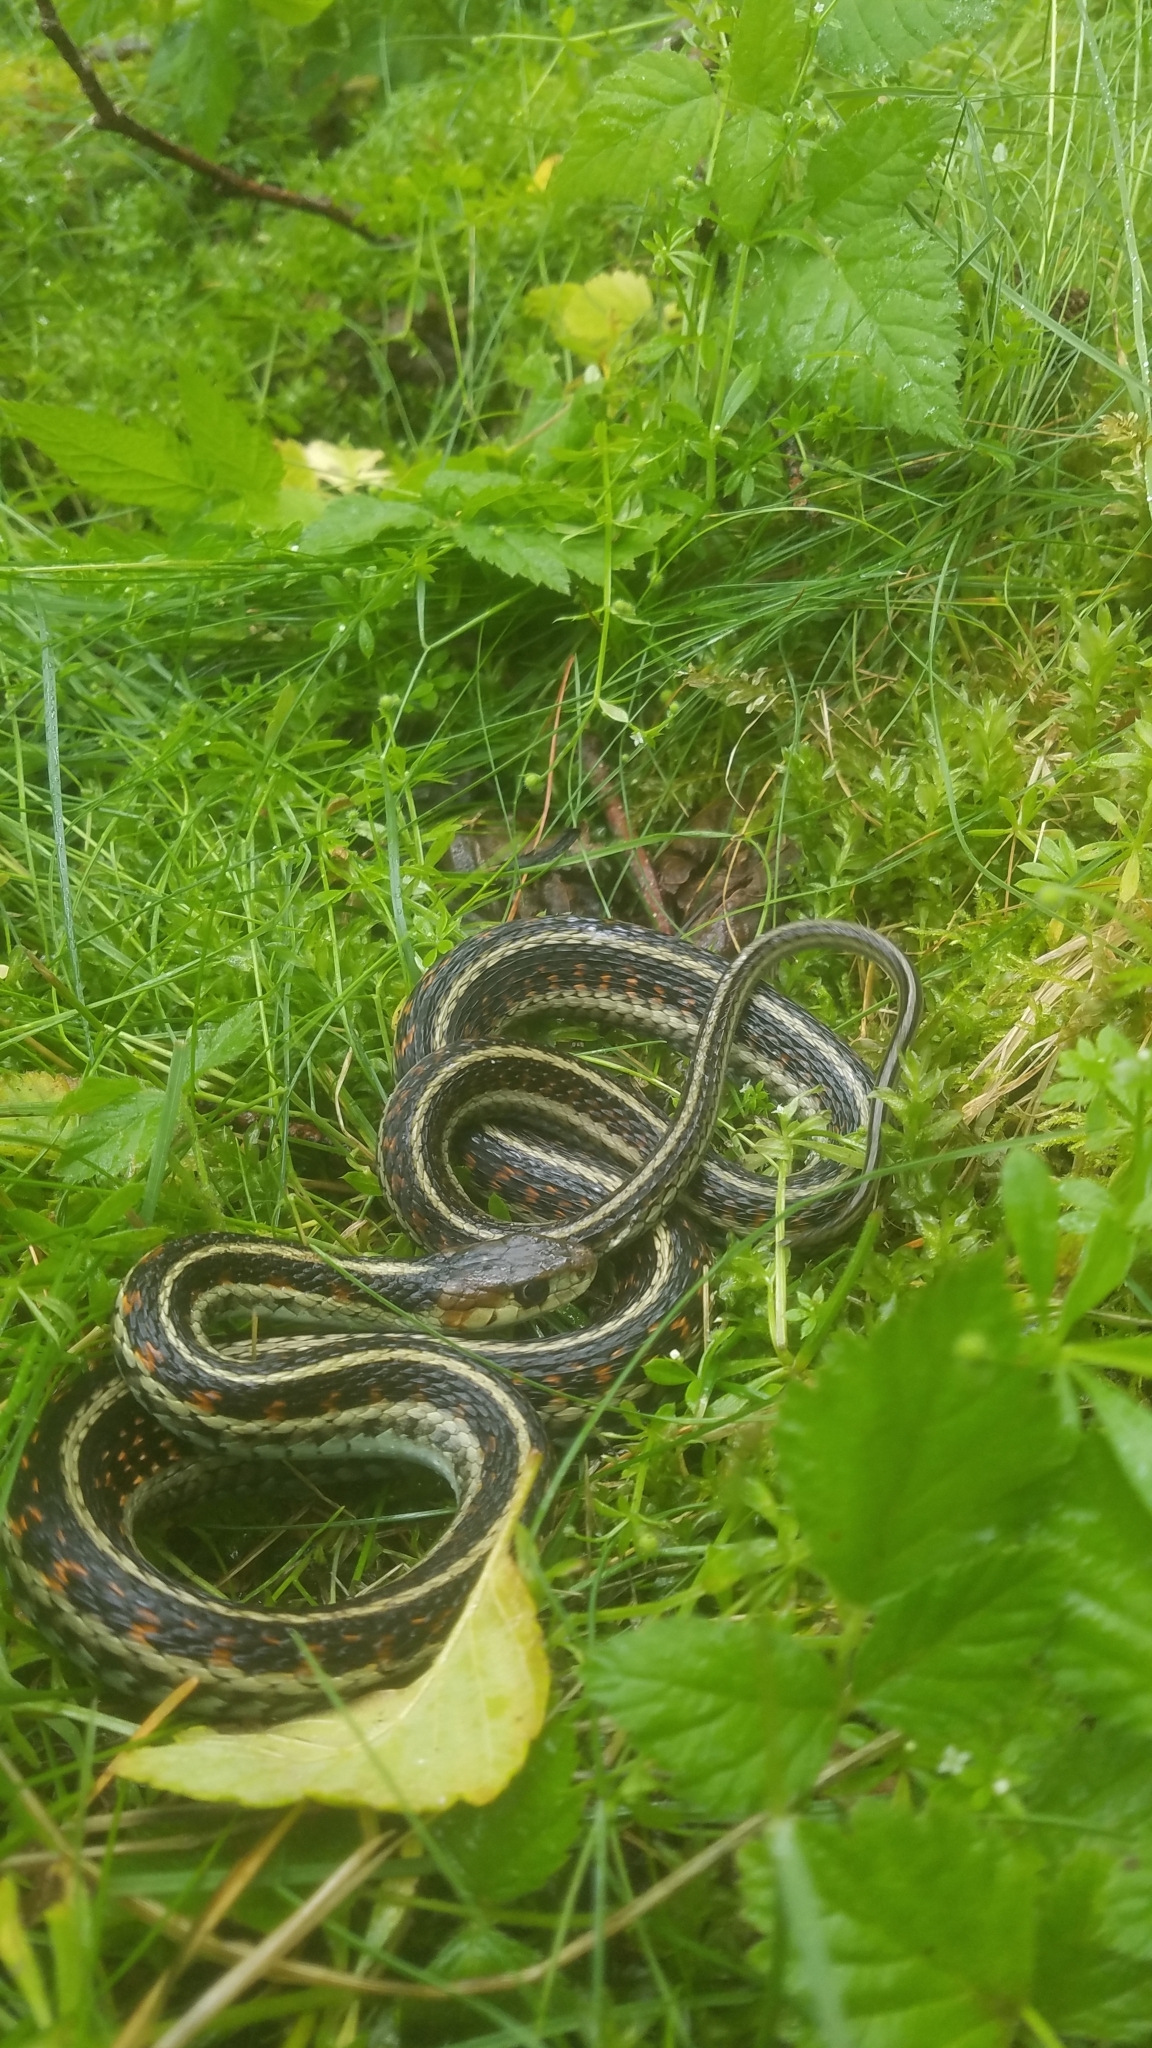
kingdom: Animalia
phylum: Chordata
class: Squamata
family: Colubridae
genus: Thamnophis
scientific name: Thamnophis sirtalis
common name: Common garter snake
